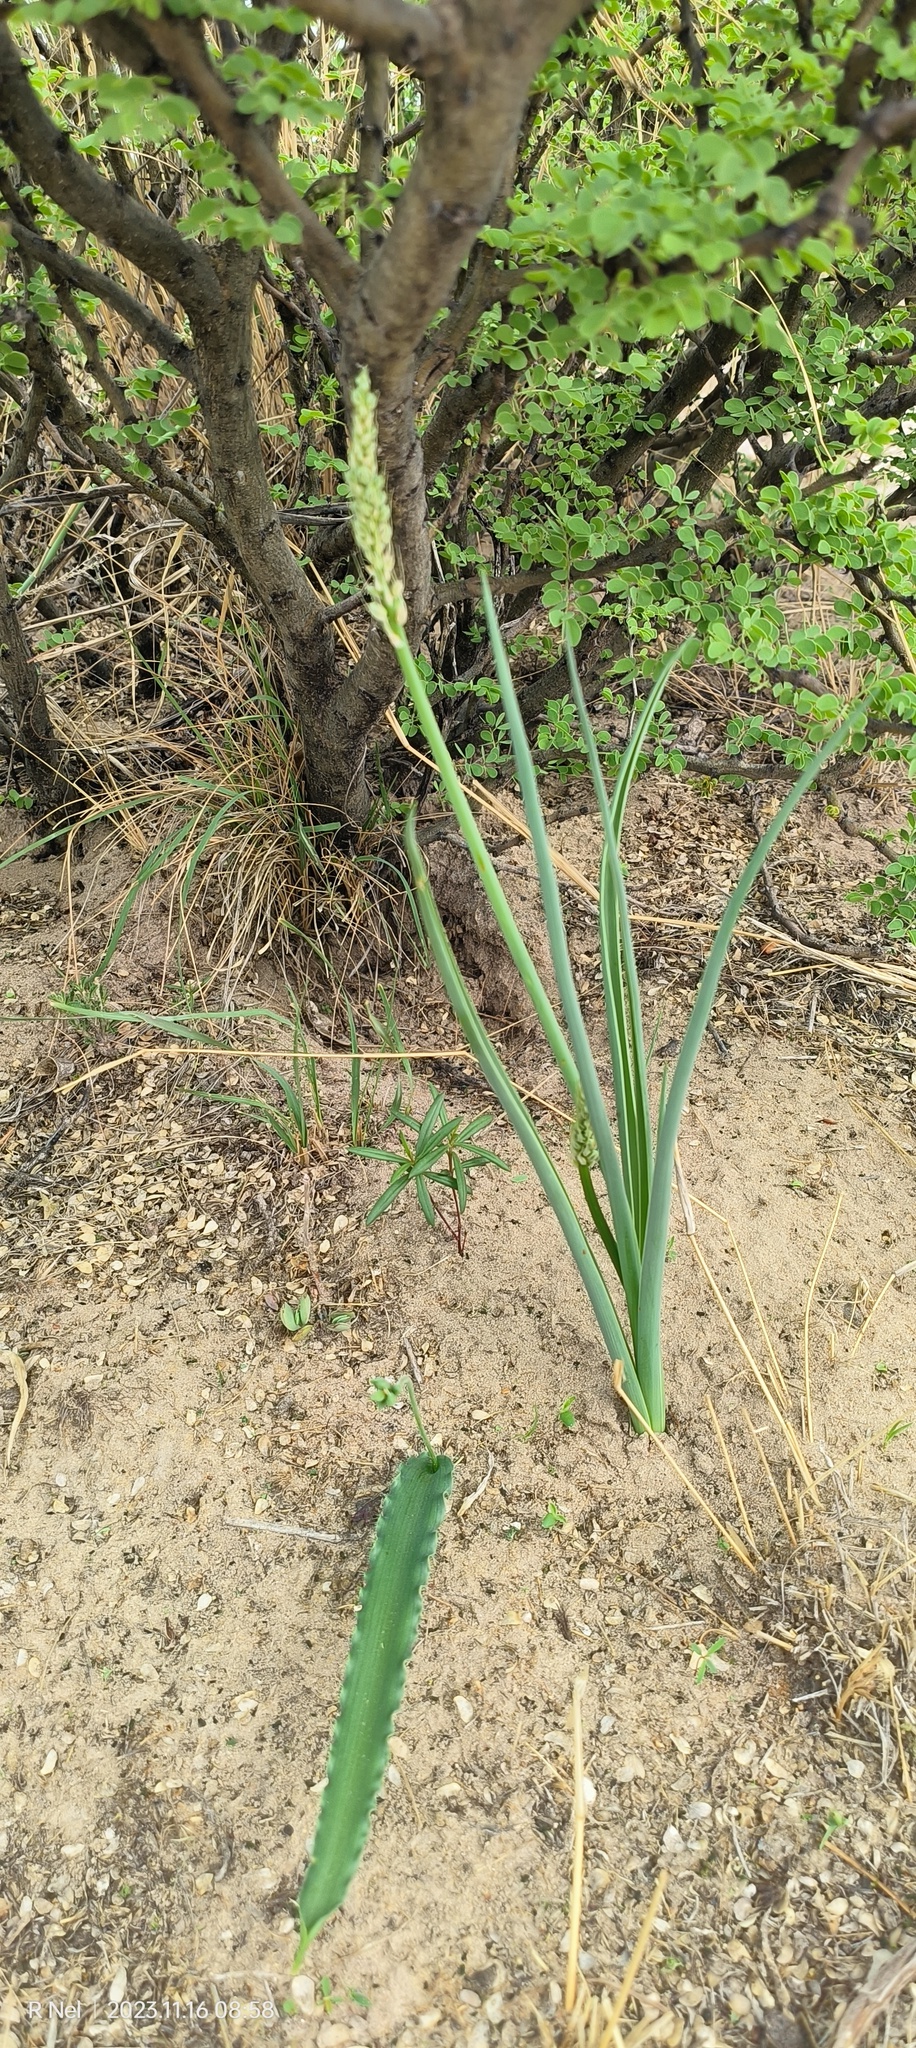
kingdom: Plantae
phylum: Tracheophyta
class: Liliopsida
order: Asparagales
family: Asparagaceae
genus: Albuca
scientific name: Albuca virens
